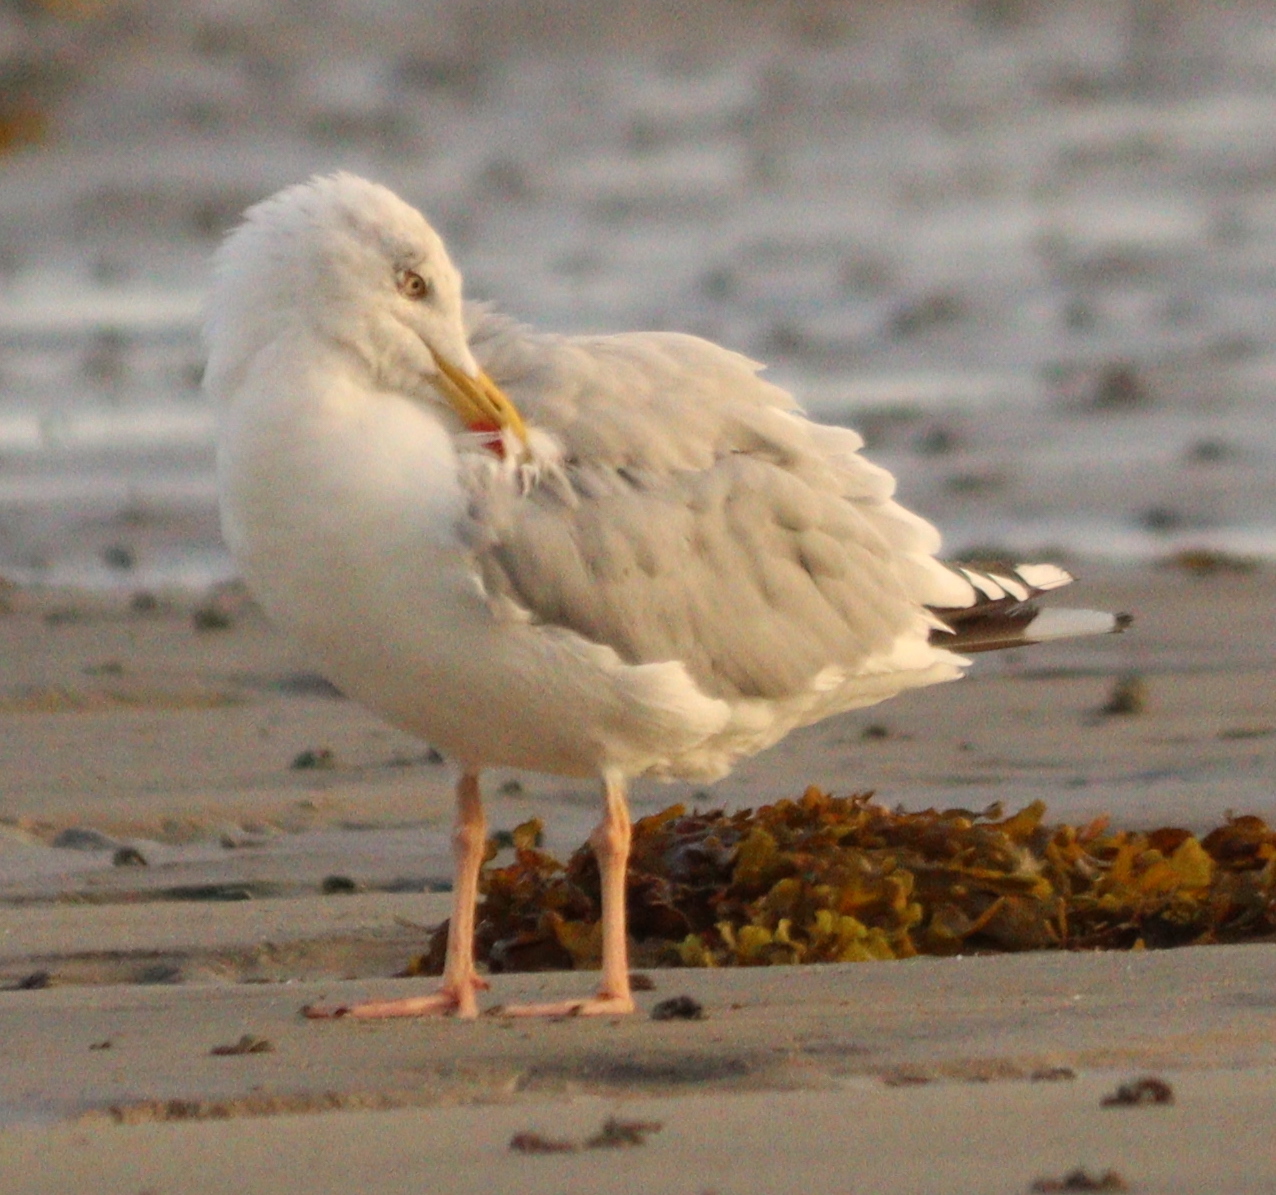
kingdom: Animalia
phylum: Chordata
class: Aves
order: Charadriiformes
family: Laridae
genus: Larus
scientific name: Larus argentatus
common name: Herring gull
